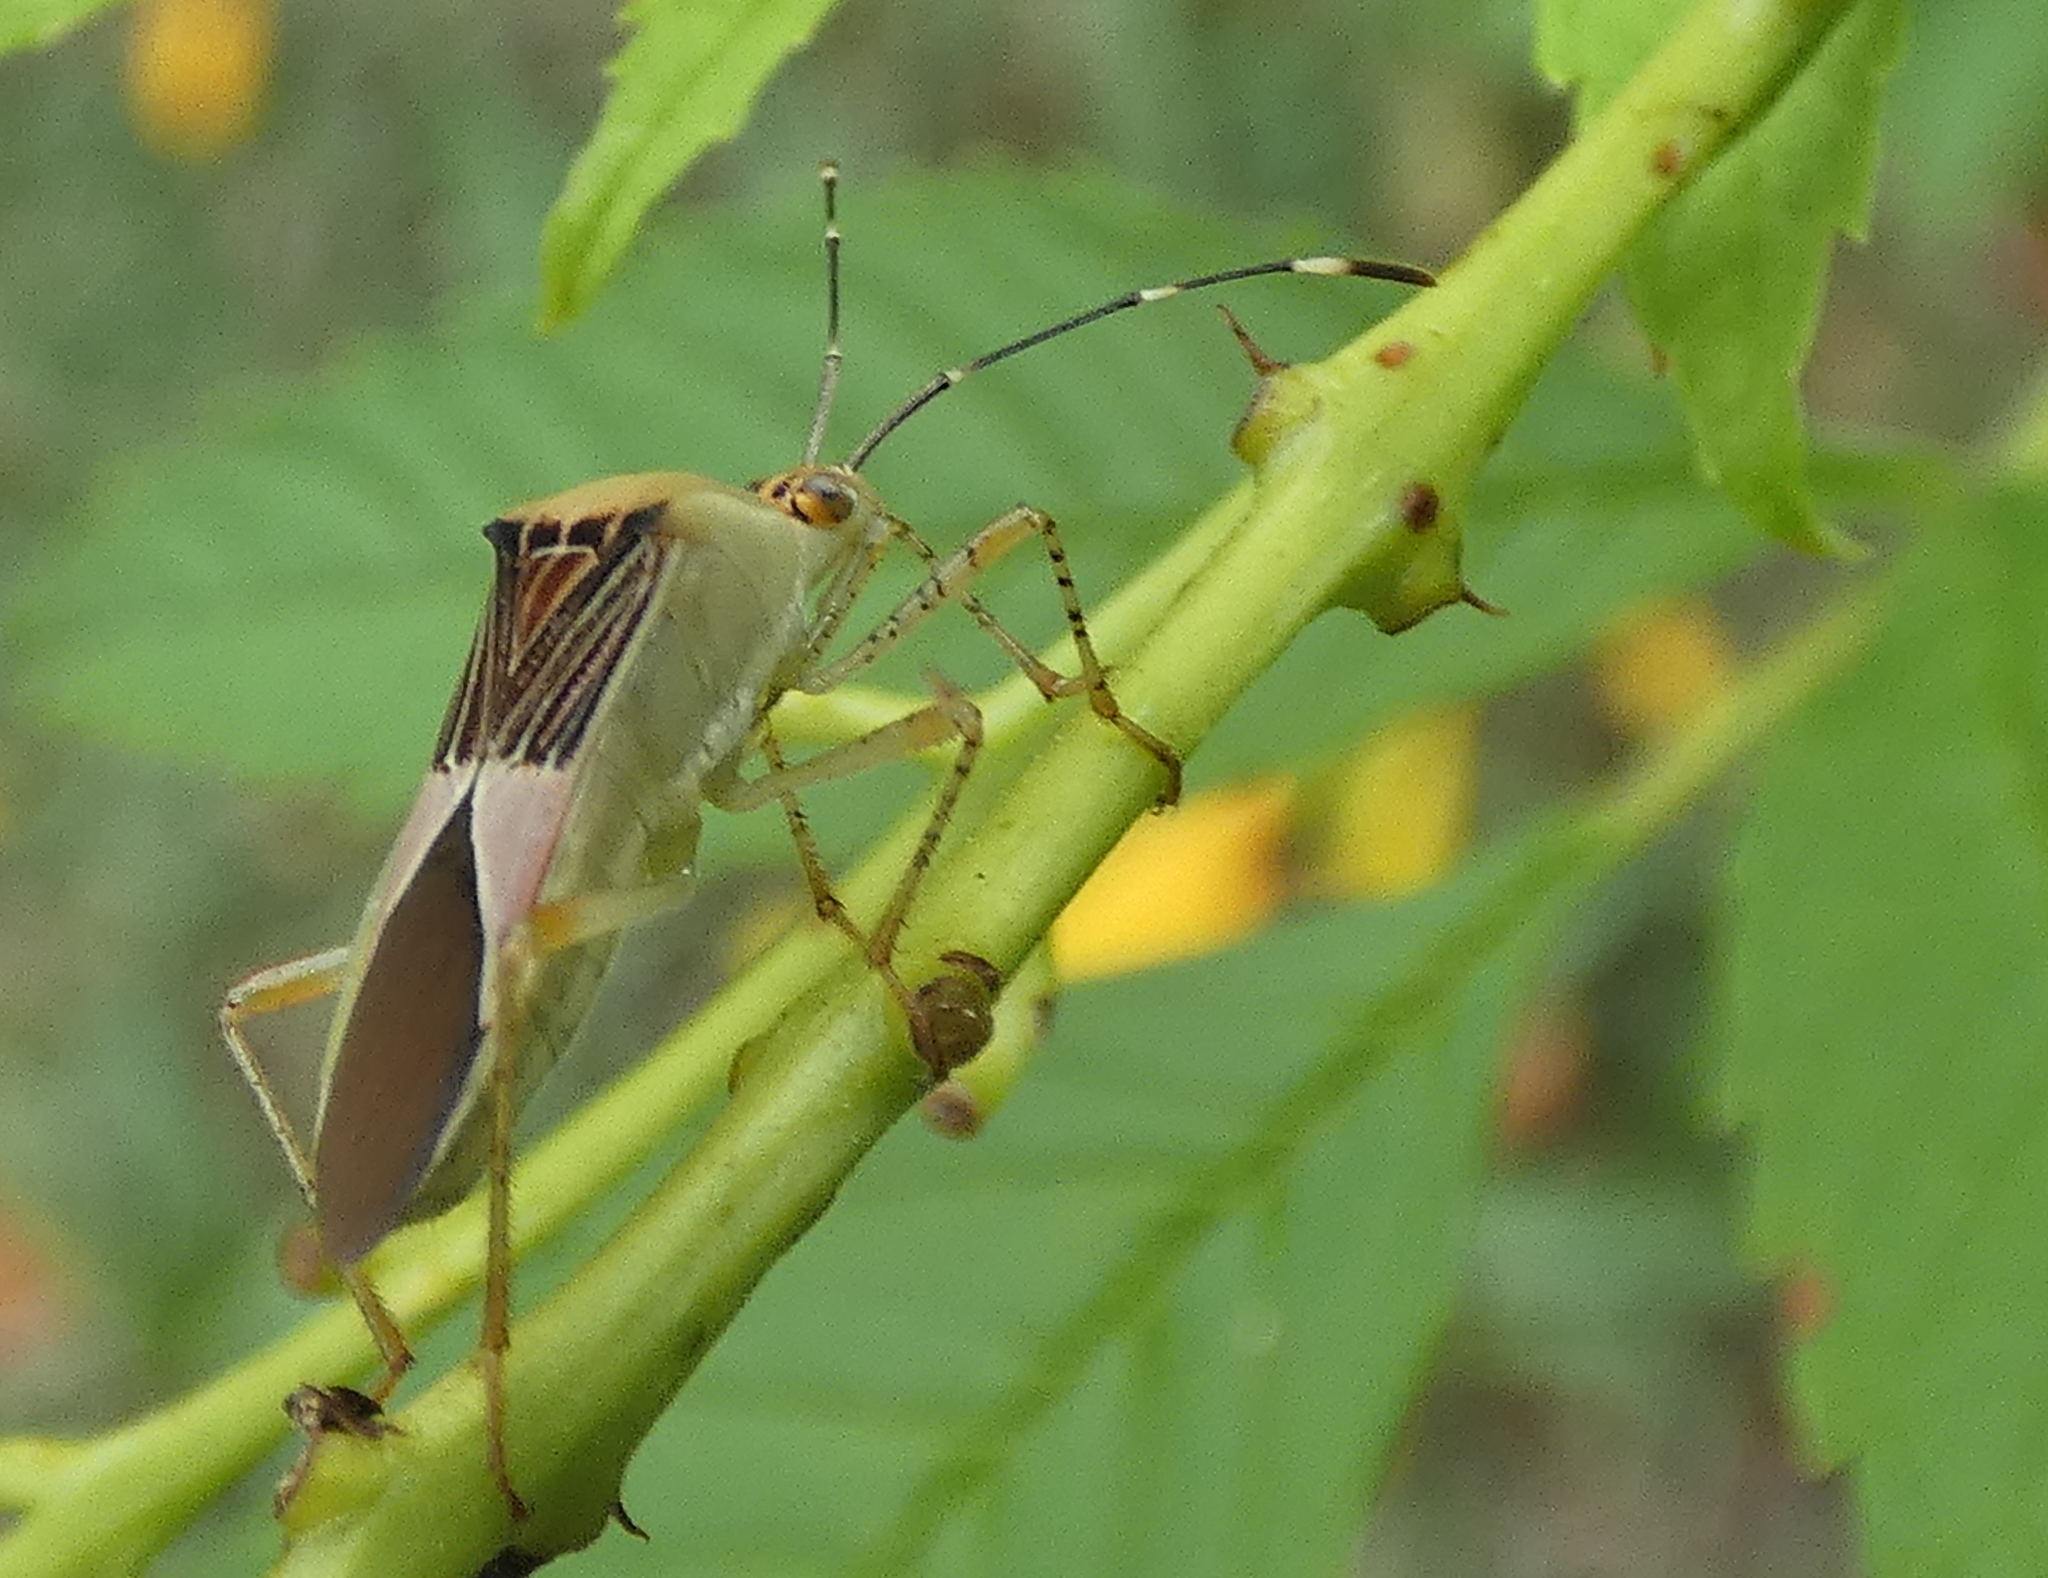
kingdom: Animalia
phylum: Arthropoda
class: Insecta
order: Hemiptera
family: Coreidae
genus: Hypselonotus
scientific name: Hypselonotus fulvus
